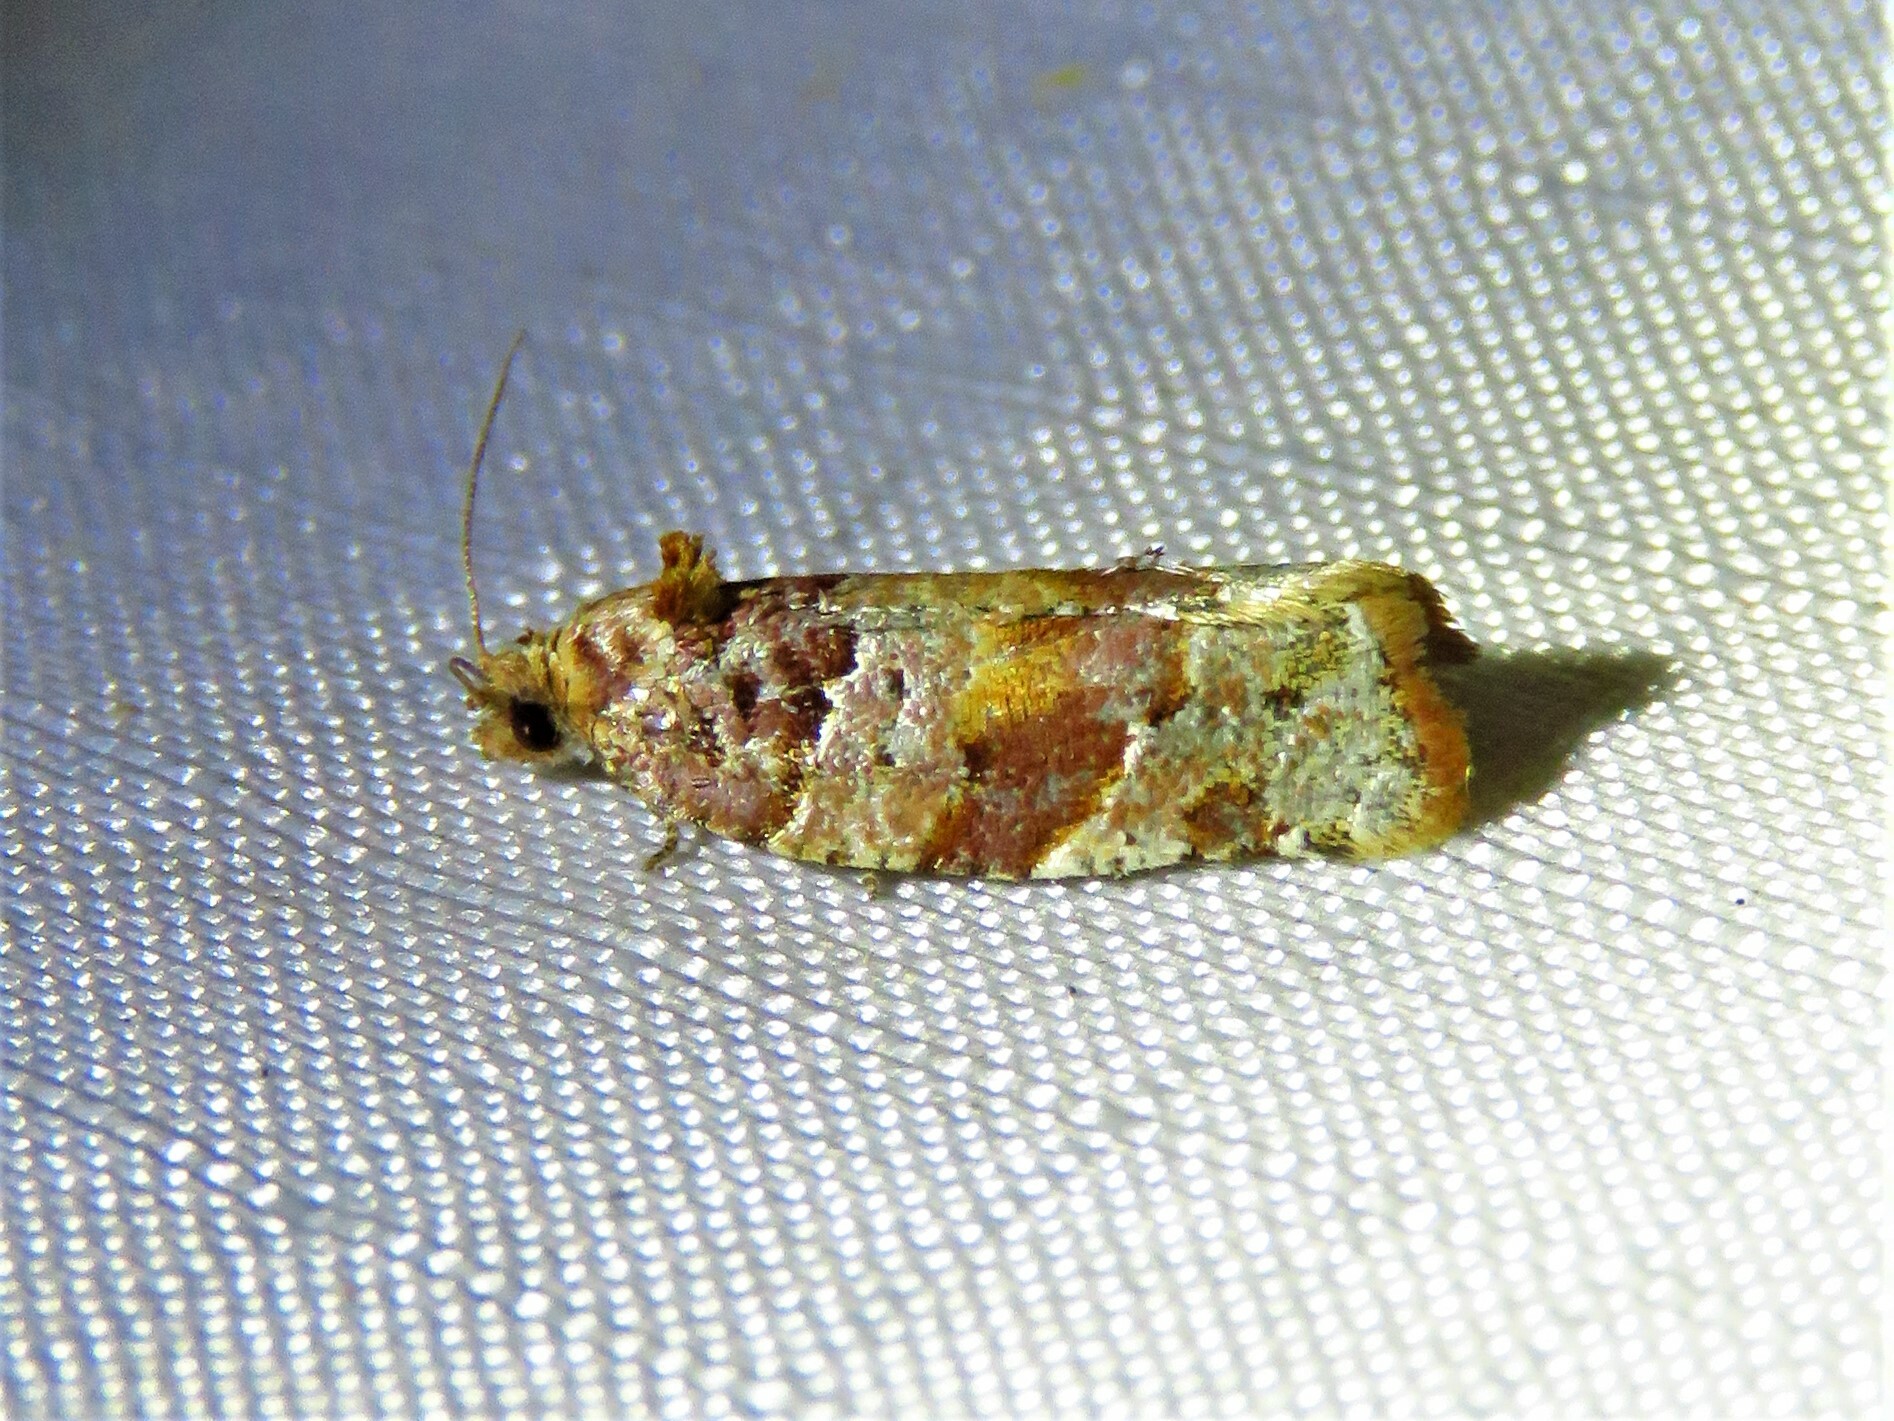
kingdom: Animalia
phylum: Arthropoda
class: Insecta
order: Lepidoptera
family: Tortricidae
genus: Archips
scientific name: Archips argyrospila
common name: Fruit-tree leafroller moth
